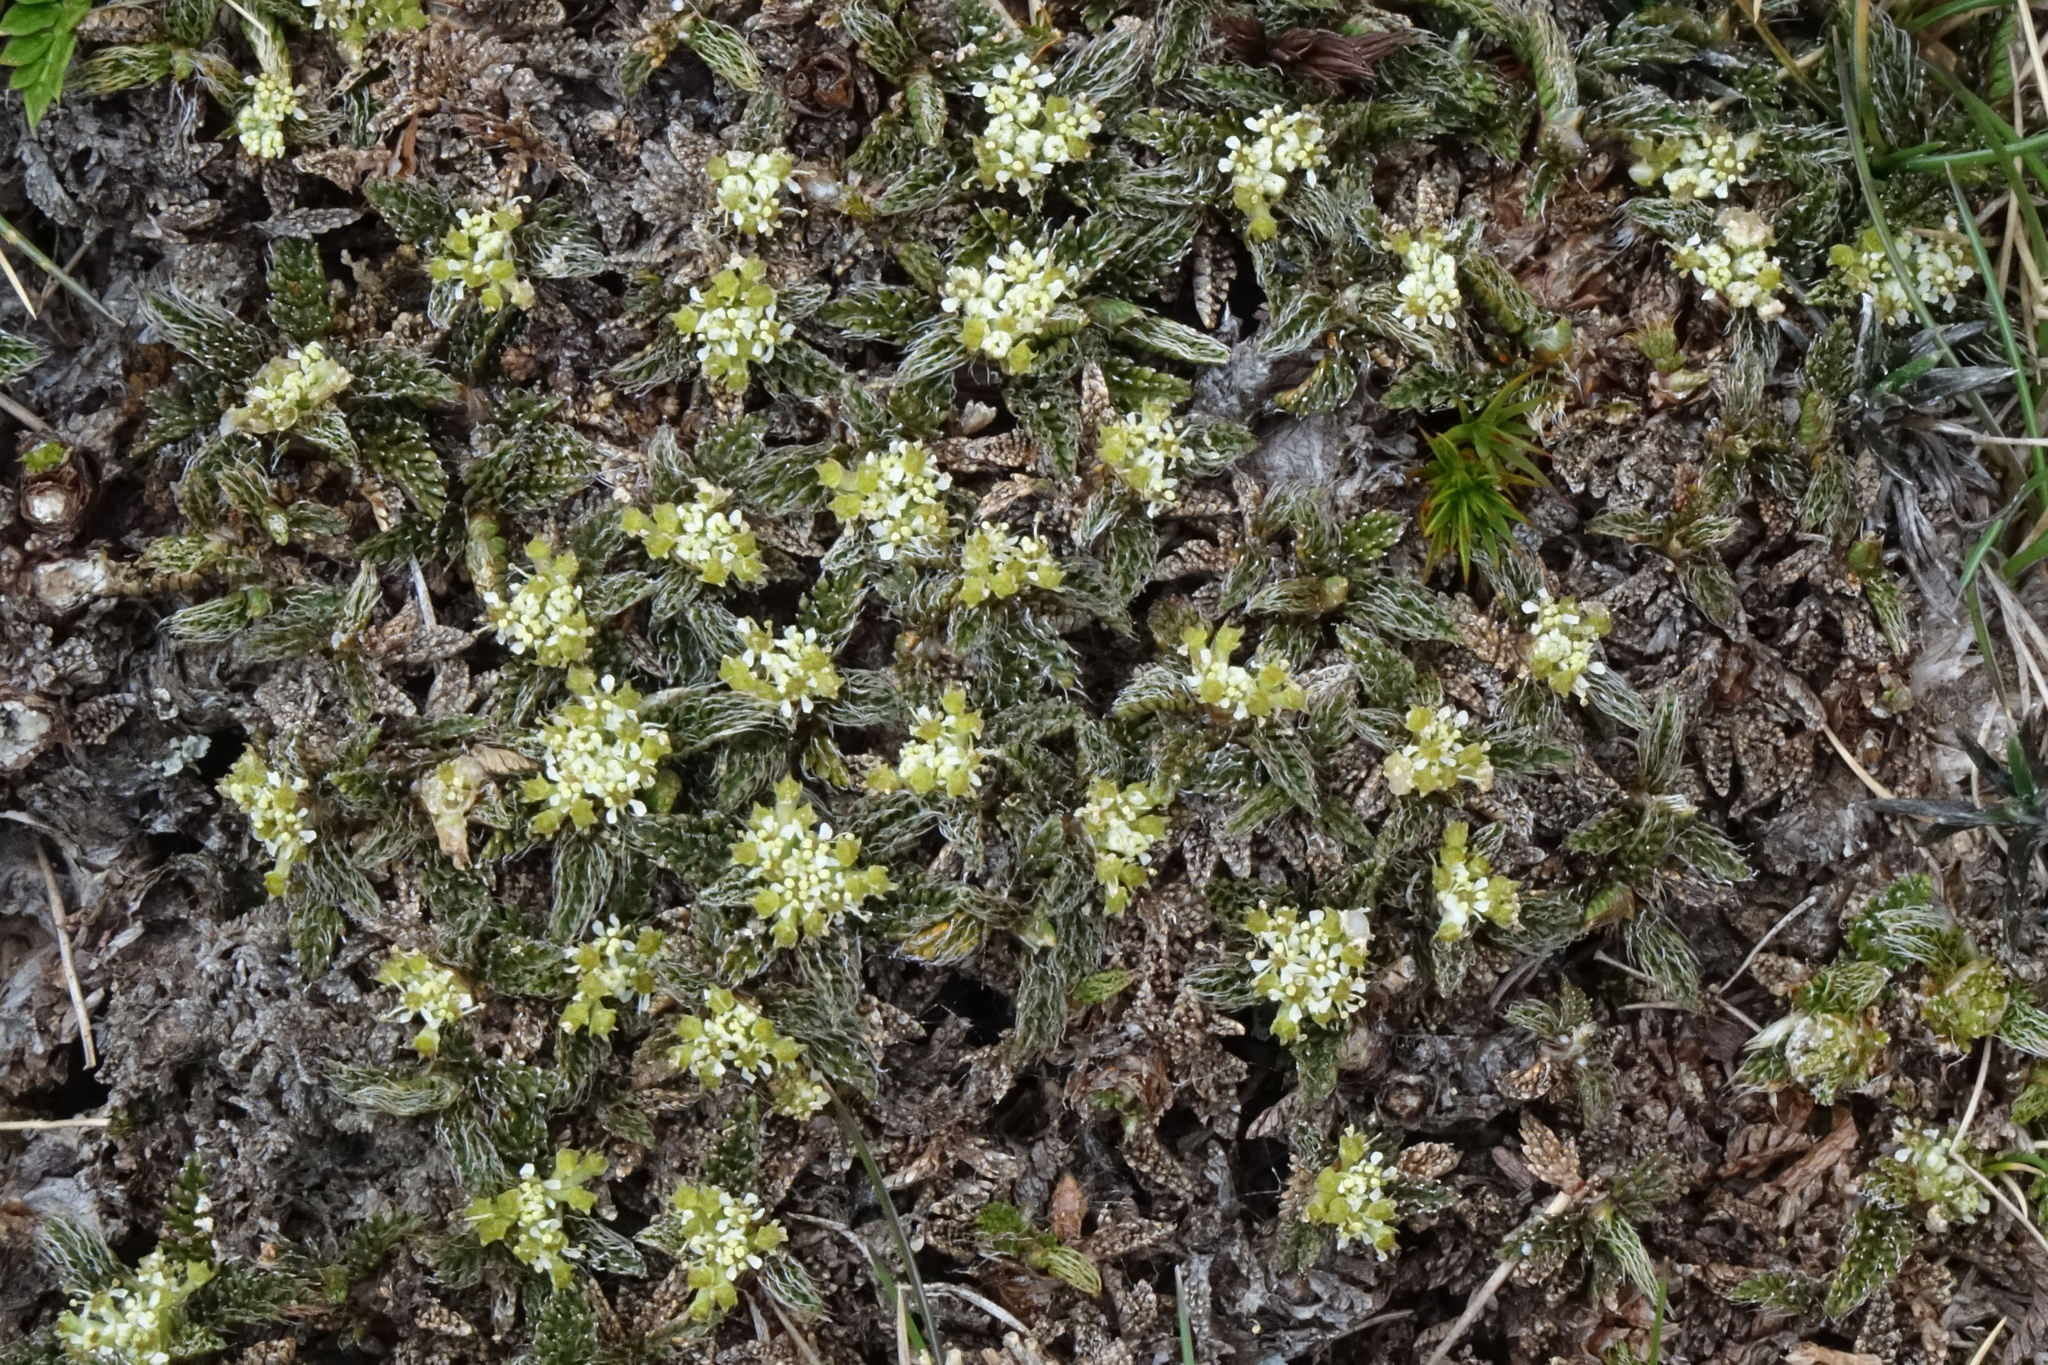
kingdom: Plantae
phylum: Tracheophyta
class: Magnoliopsida
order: Apiales
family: Apiaceae
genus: Anisotome
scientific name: Anisotome imbricata
